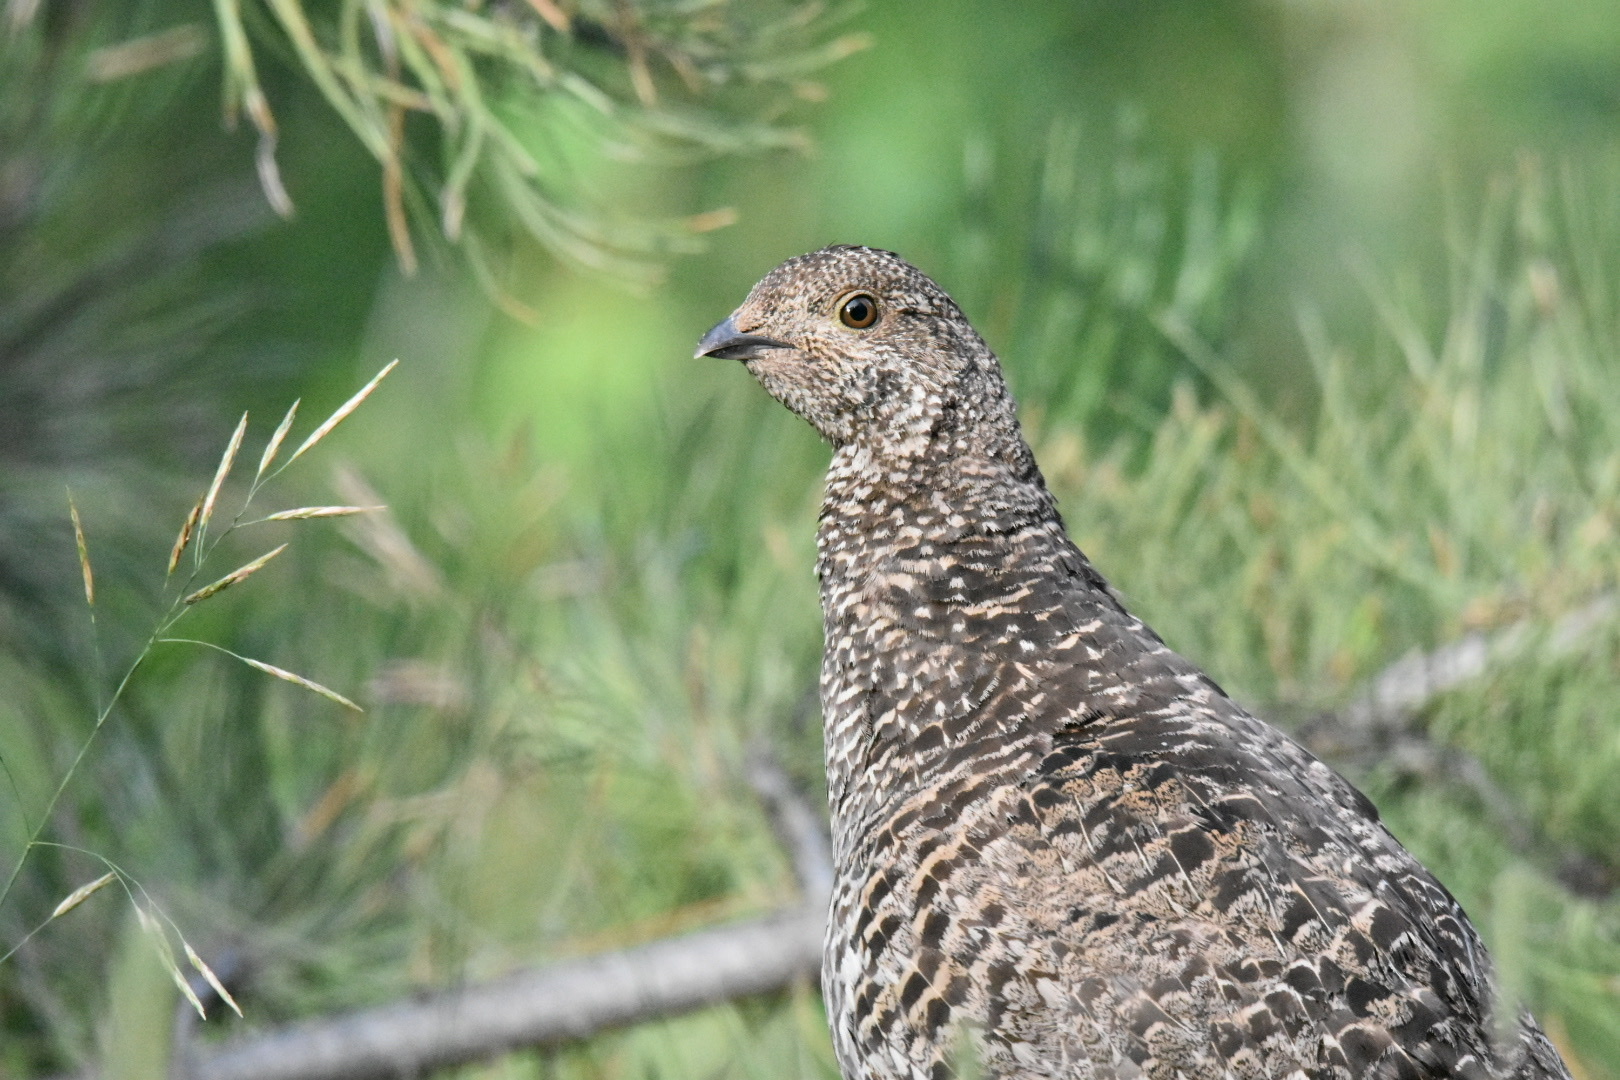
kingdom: Animalia
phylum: Chordata
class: Aves
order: Galliformes
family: Phasianidae
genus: Dendragapus
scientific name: Dendragapus obscurus
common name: Dusky grouse
